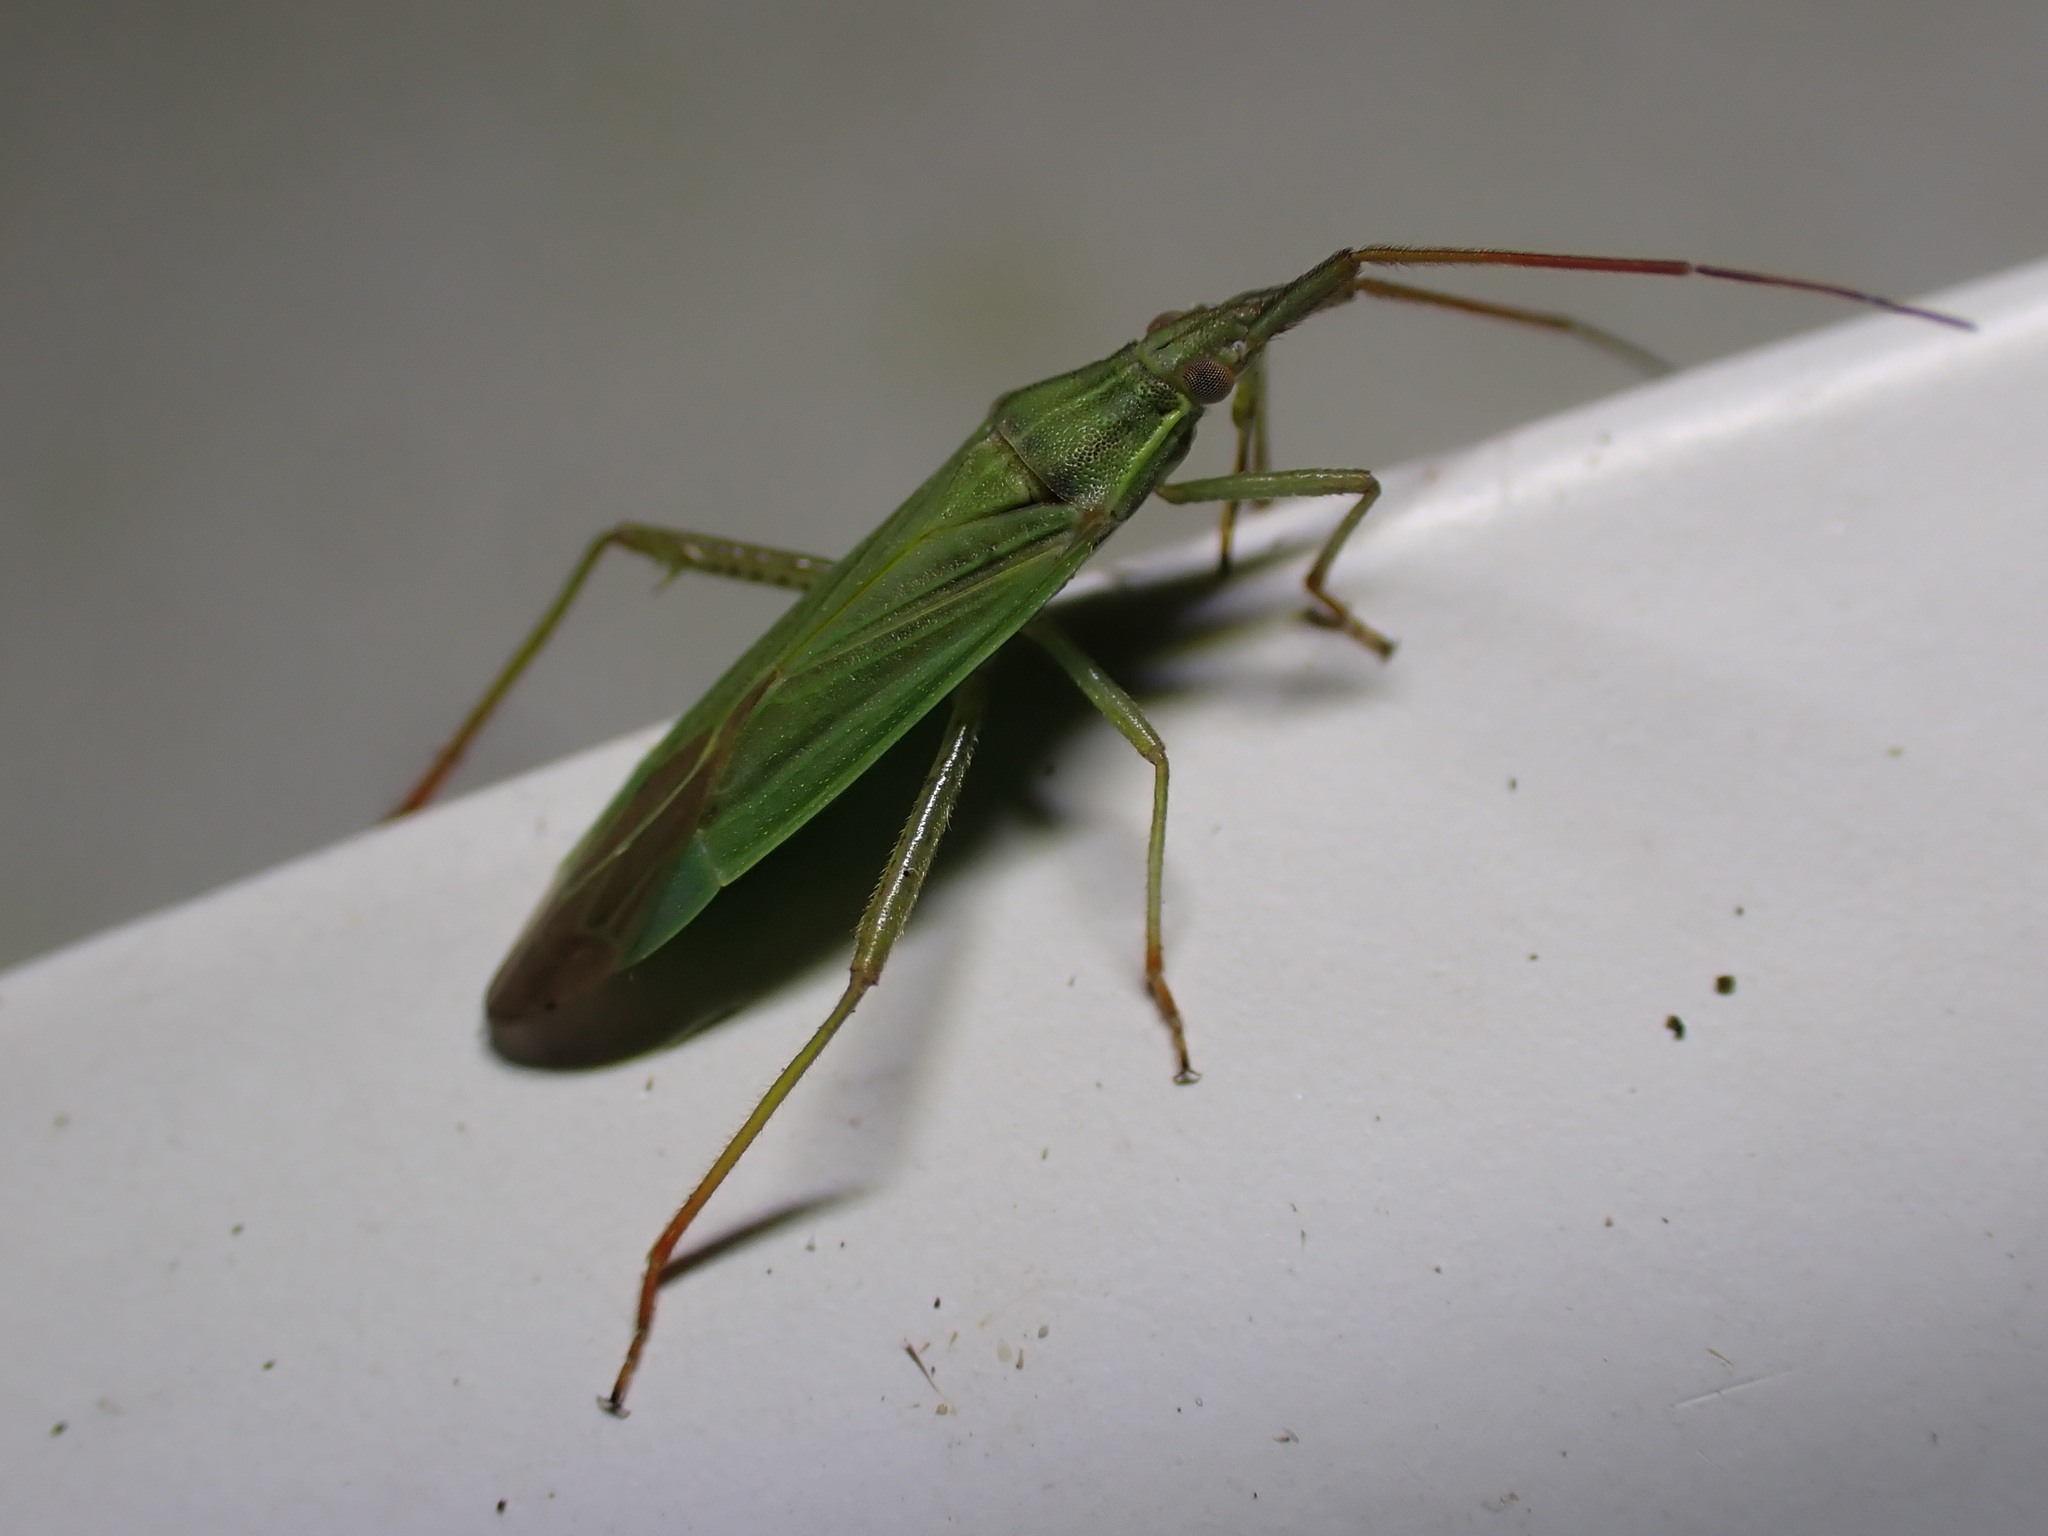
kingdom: Animalia
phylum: Arthropoda
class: Insecta
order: Hemiptera
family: Miridae
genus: Stenodema
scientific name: Stenodema calcarata
